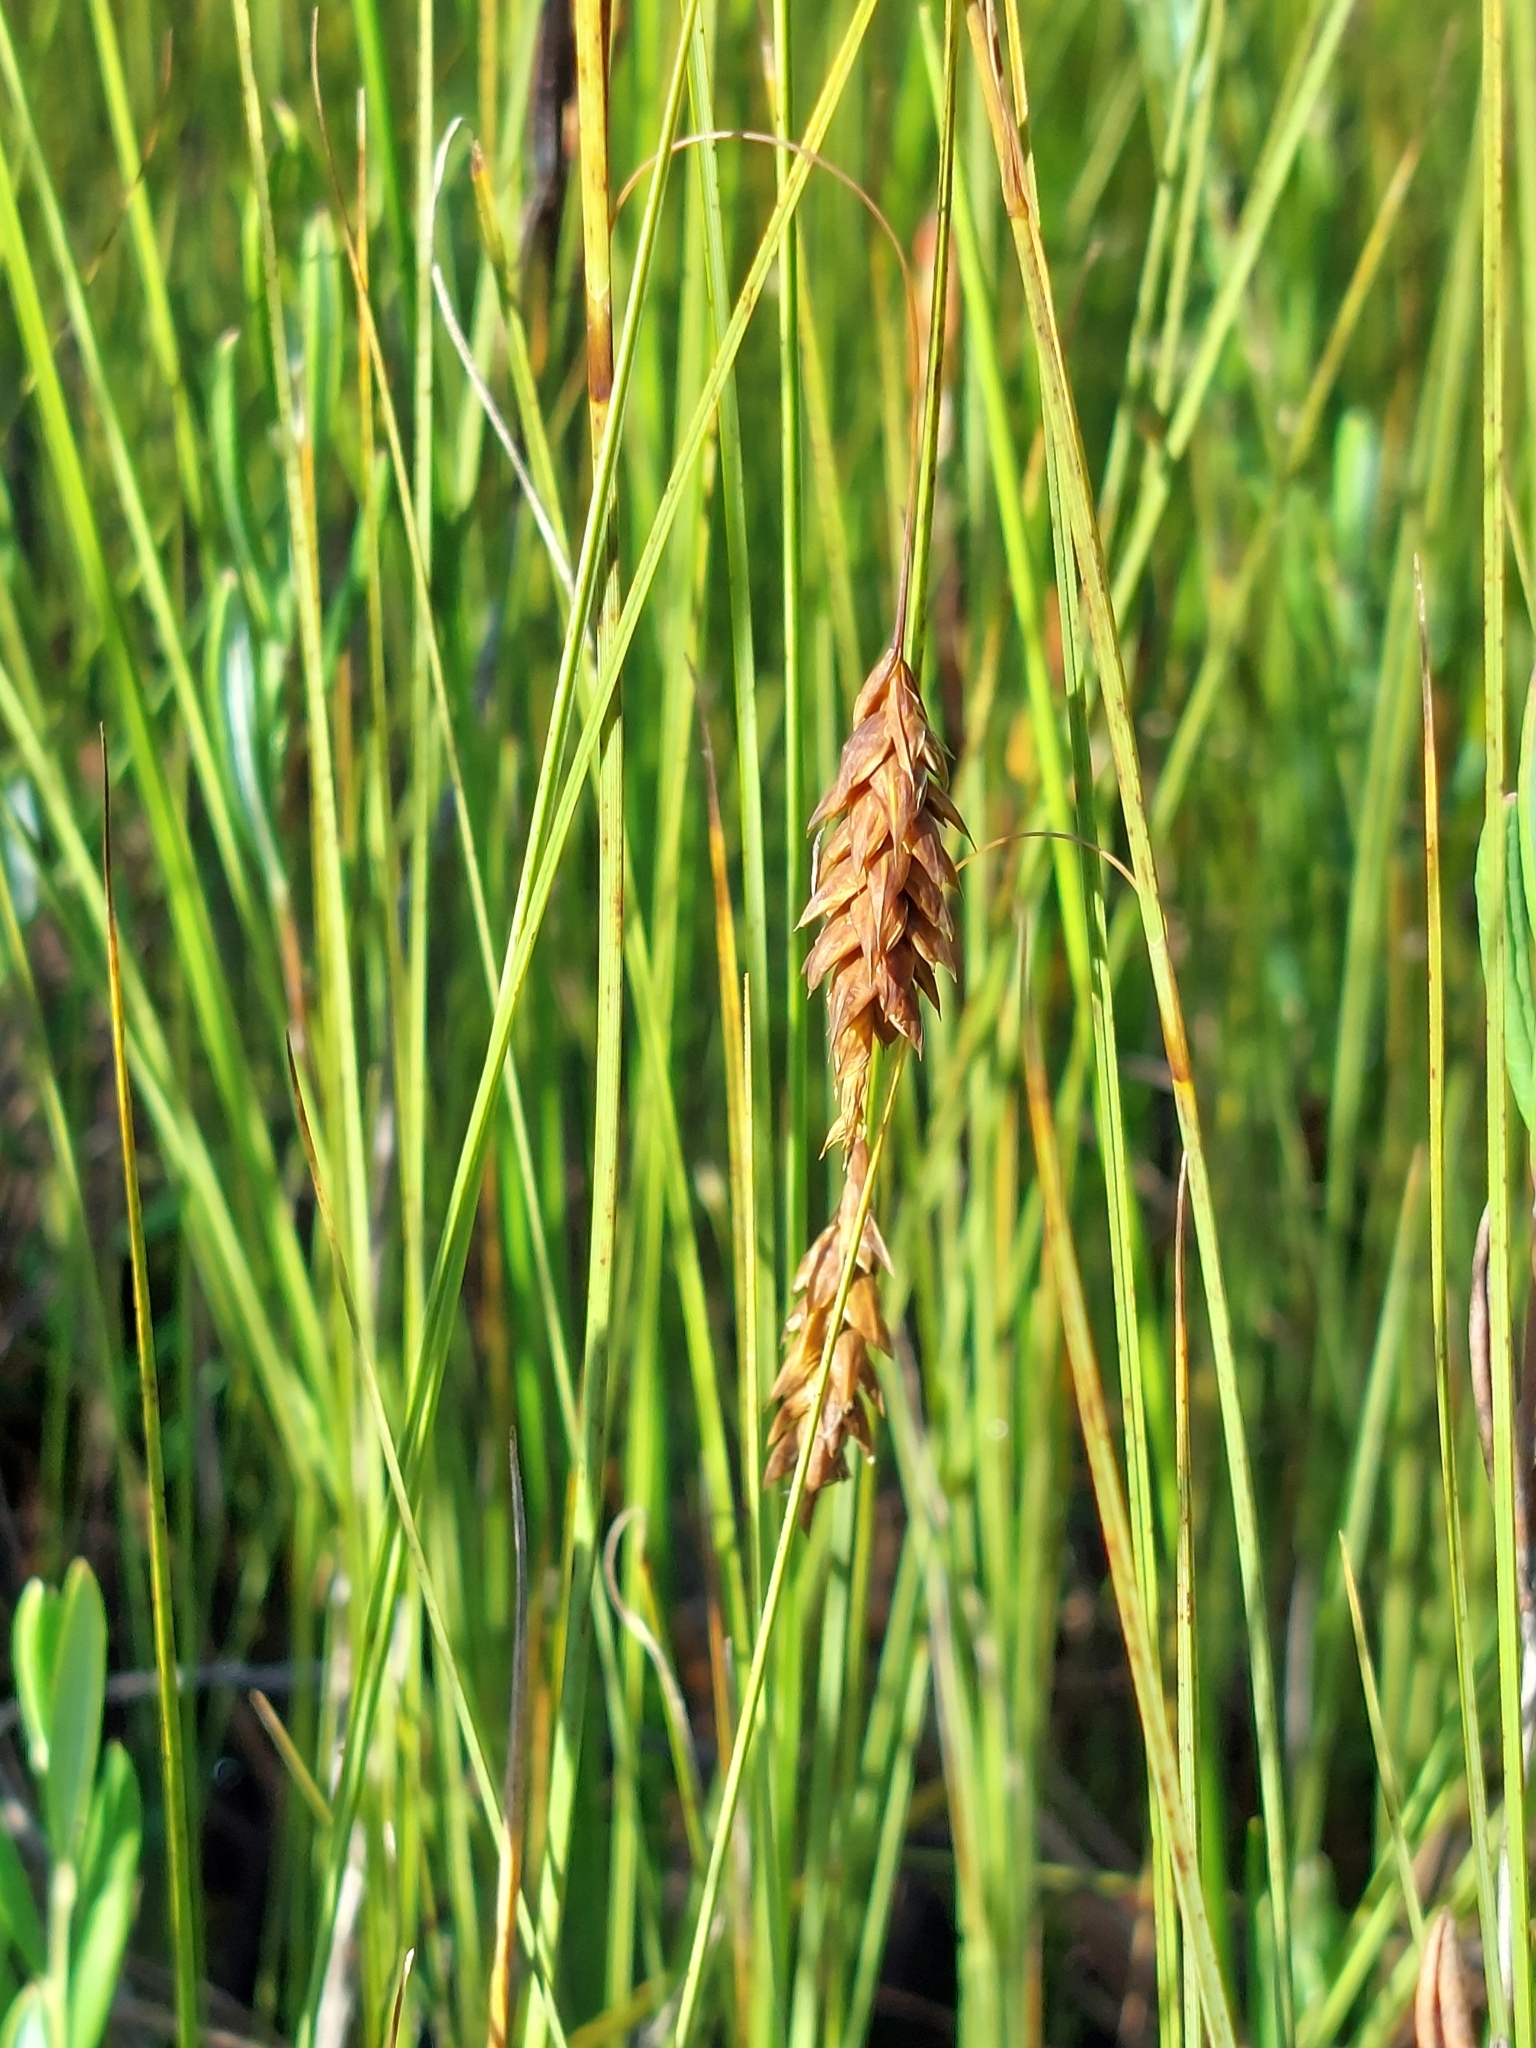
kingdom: Plantae
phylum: Tracheophyta
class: Liliopsida
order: Poales
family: Cyperaceae
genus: Carex
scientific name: Carex limosa
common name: Bog sedge
